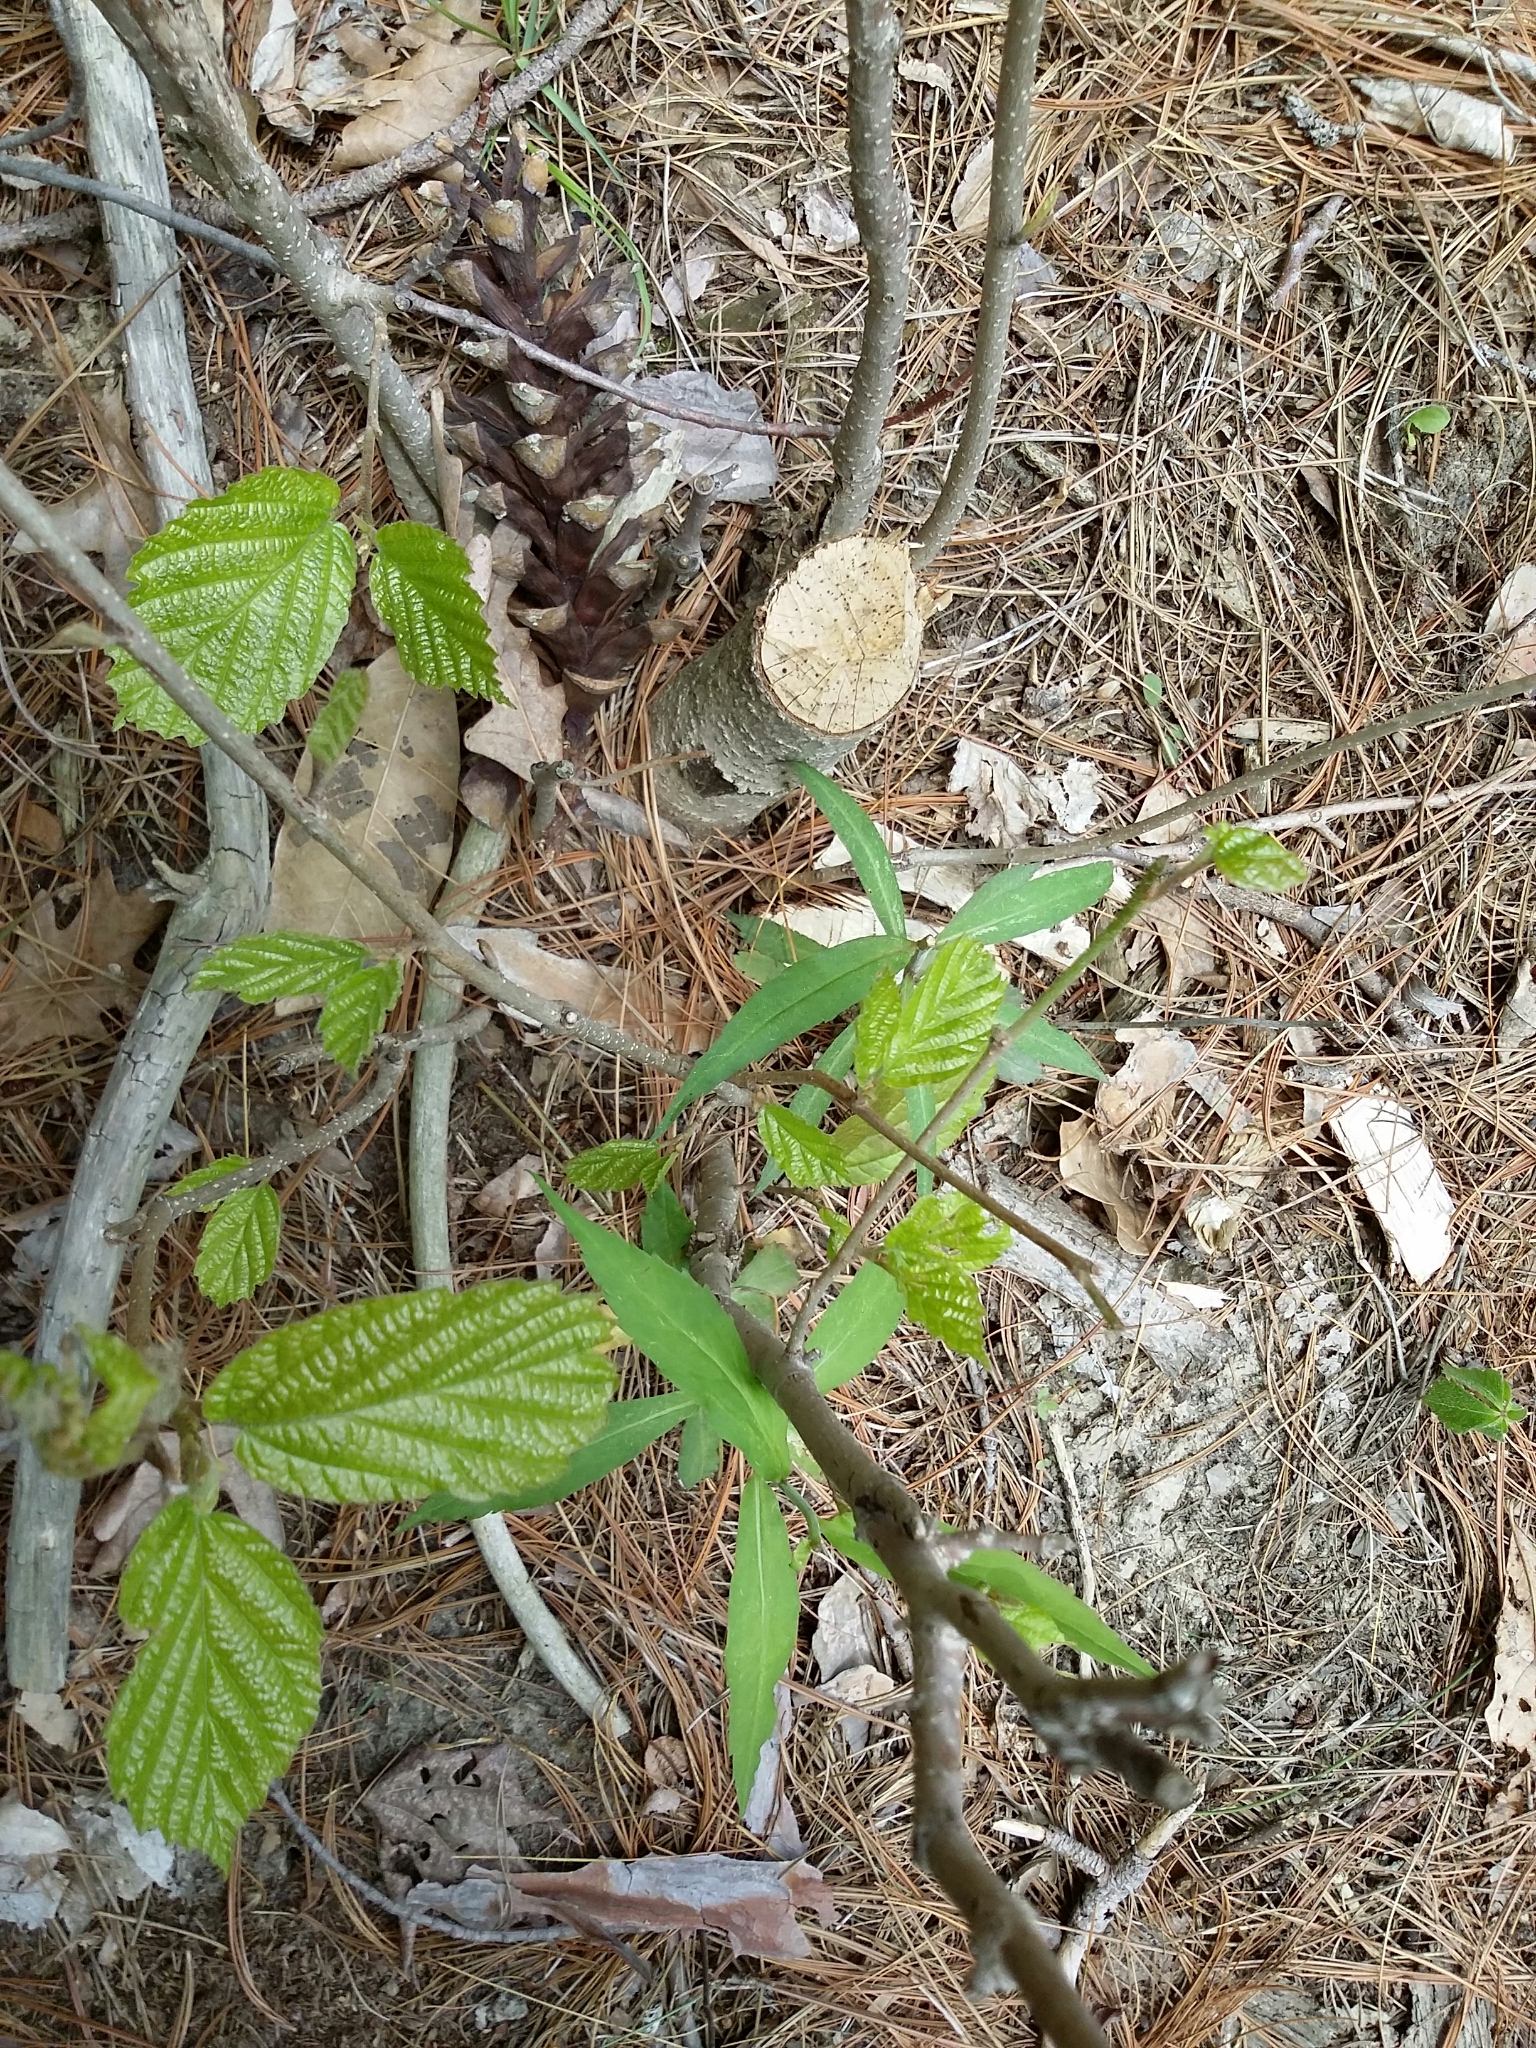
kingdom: Animalia
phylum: Chordata
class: Mammalia
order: Rodentia
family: Castoridae
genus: Castor
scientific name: Castor canadensis
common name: American beaver
